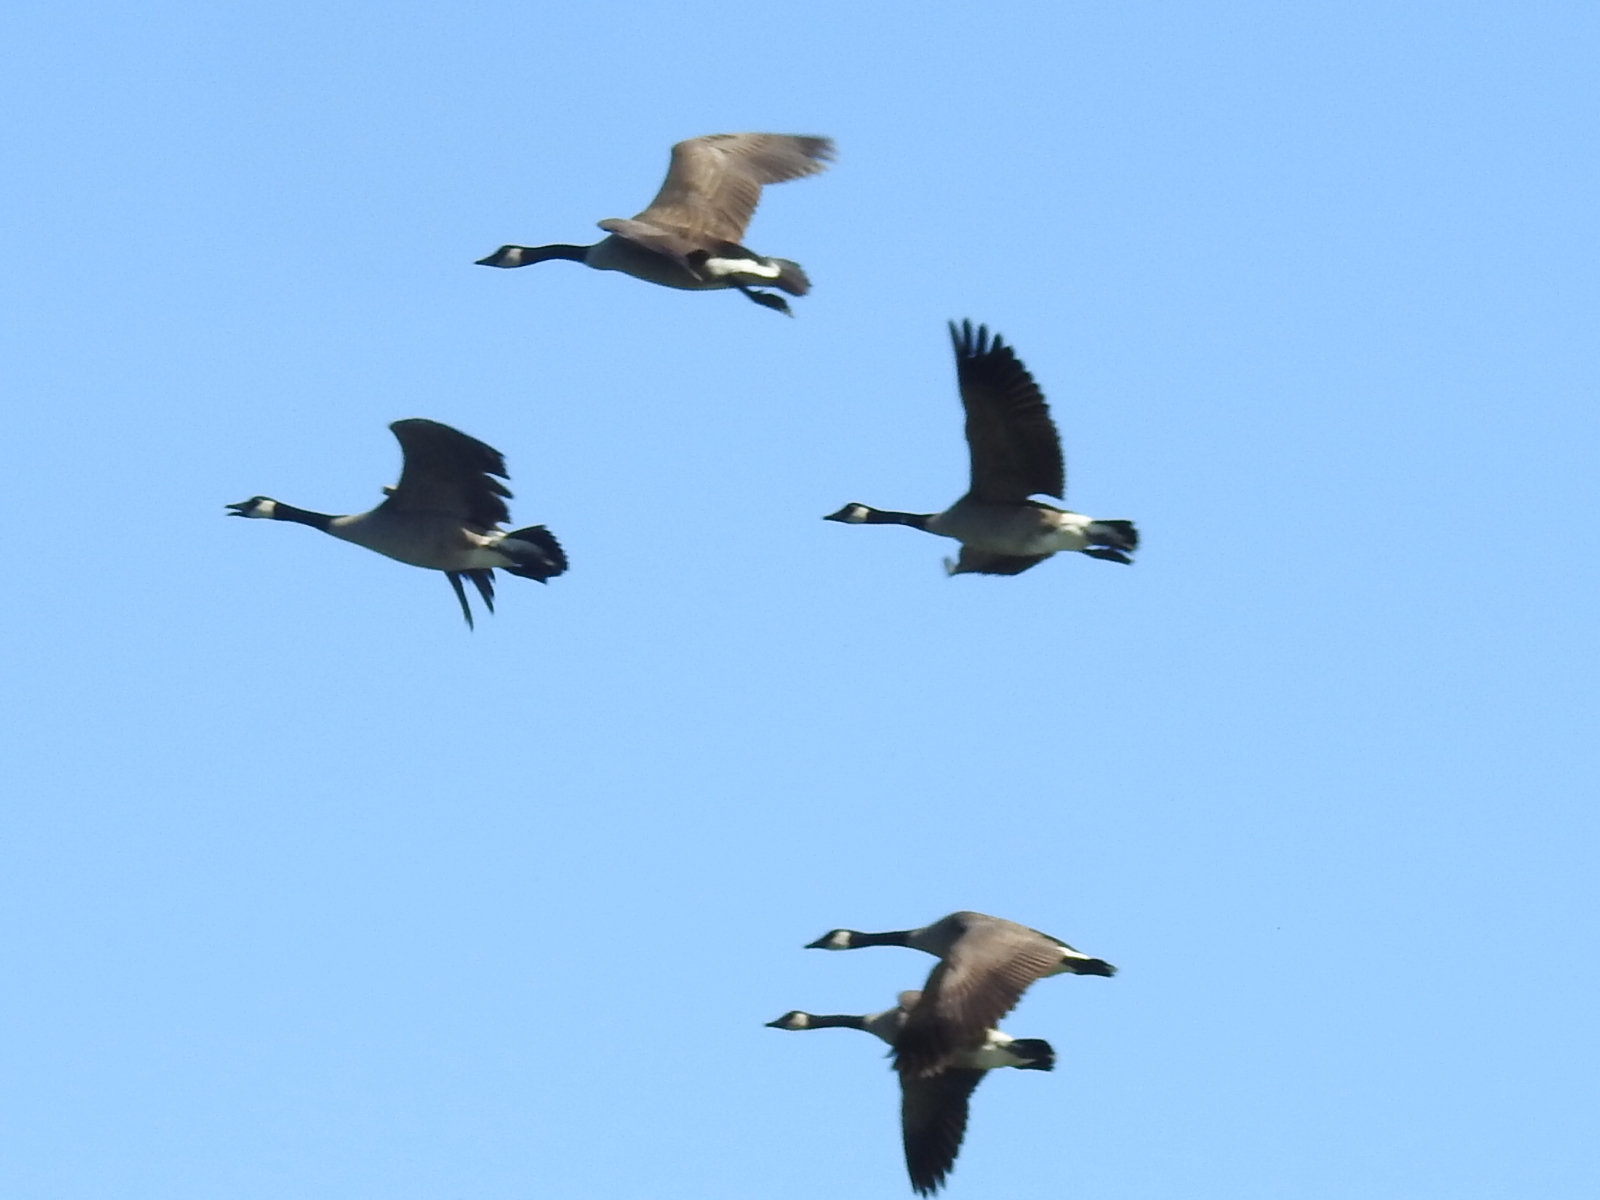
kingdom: Animalia
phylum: Chordata
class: Aves
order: Anseriformes
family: Anatidae
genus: Branta
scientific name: Branta canadensis
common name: Canada goose
